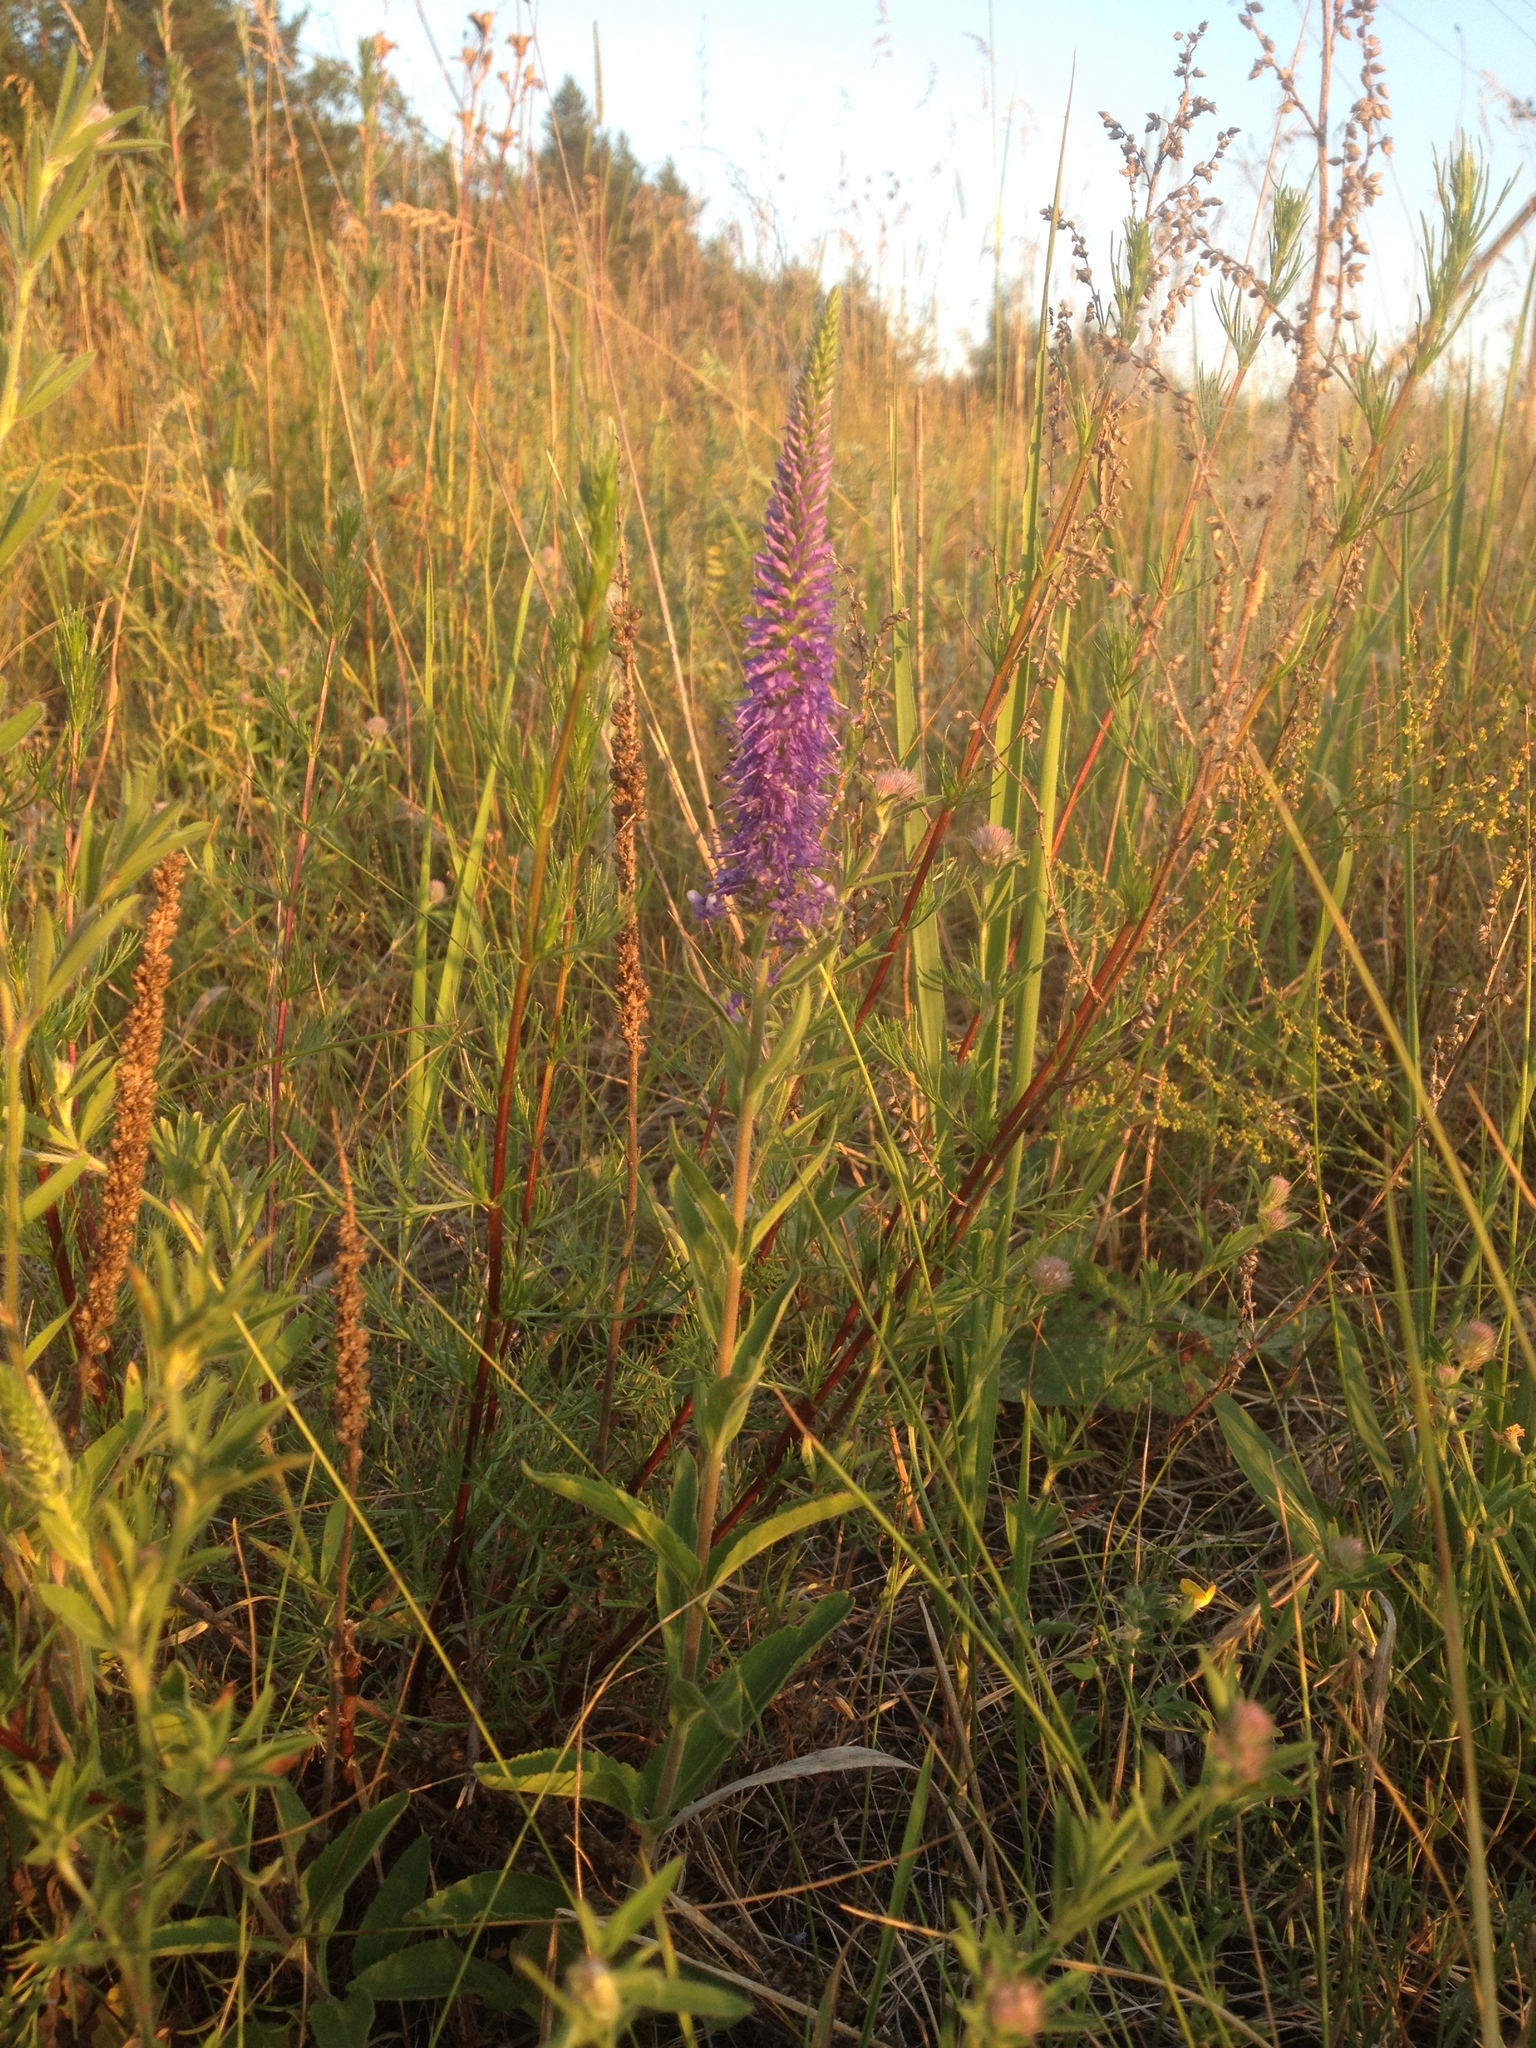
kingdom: Plantae
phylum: Tracheophyta
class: Magnoliopsida
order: Lamiales
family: Plantaginaceae
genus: Veronica
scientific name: Veronica longifolia
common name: Garden speedwell
